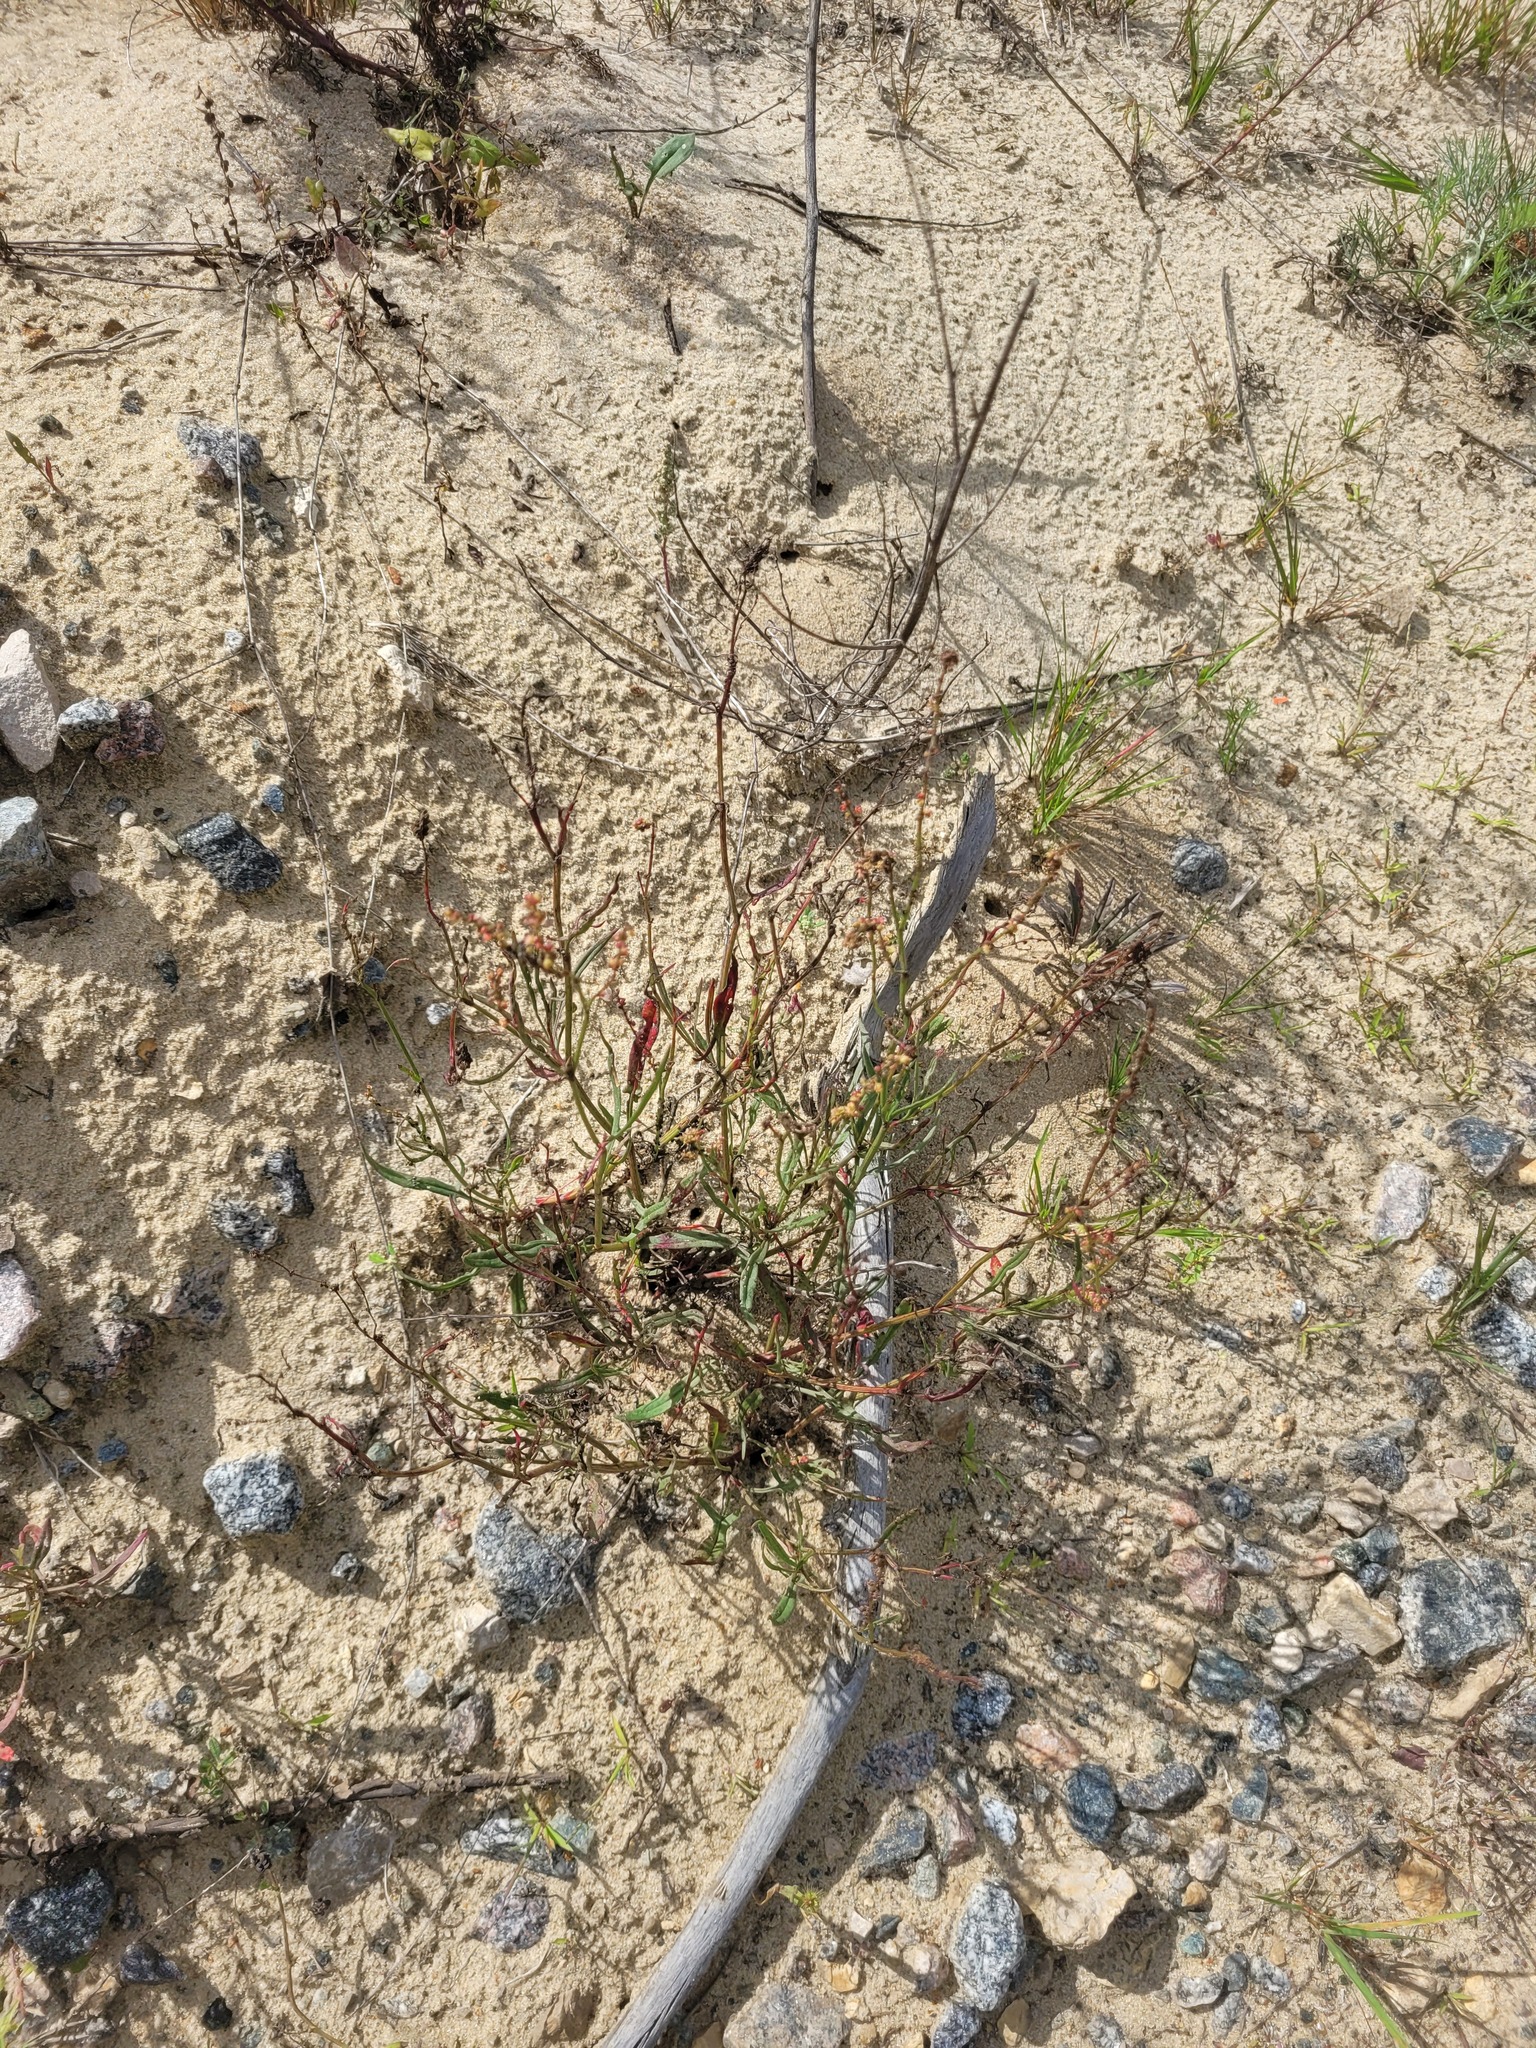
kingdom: Plantae
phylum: Tracheophyta
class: Magnoliopsida
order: Caryophyllales
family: Polygonaceae
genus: Rumex
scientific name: Rumex acetosella
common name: Common sheep sorrel
